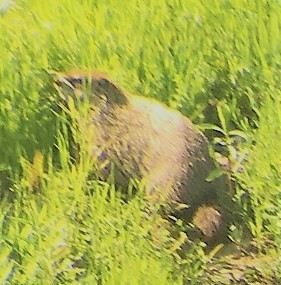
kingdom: Animalia
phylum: Chordata
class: Mammalia
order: Rodentia
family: Sciuridae
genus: Marmota
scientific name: Marmota monax
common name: Groundhog
